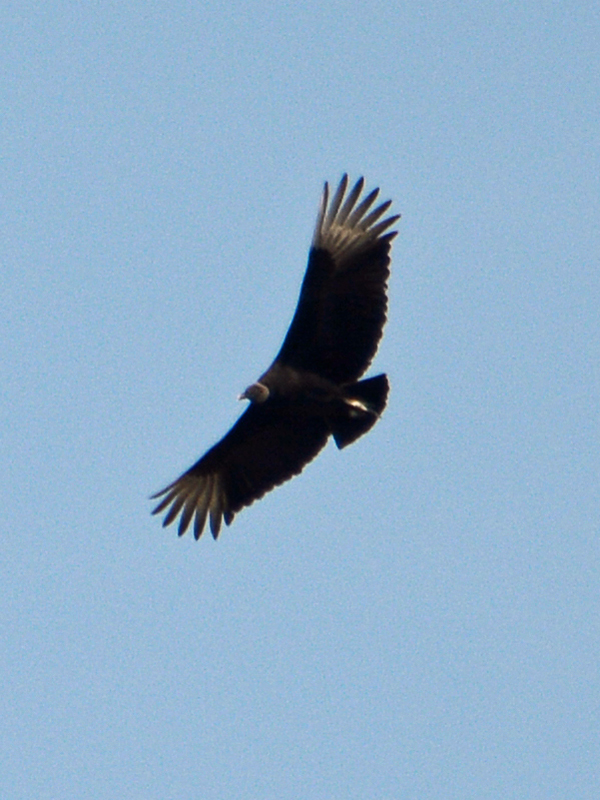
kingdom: Animalia
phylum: Chordata
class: Aves
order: Accipitriformes
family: Cathartidae
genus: Coragyps
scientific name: Coragyps atratus
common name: Black vulture
